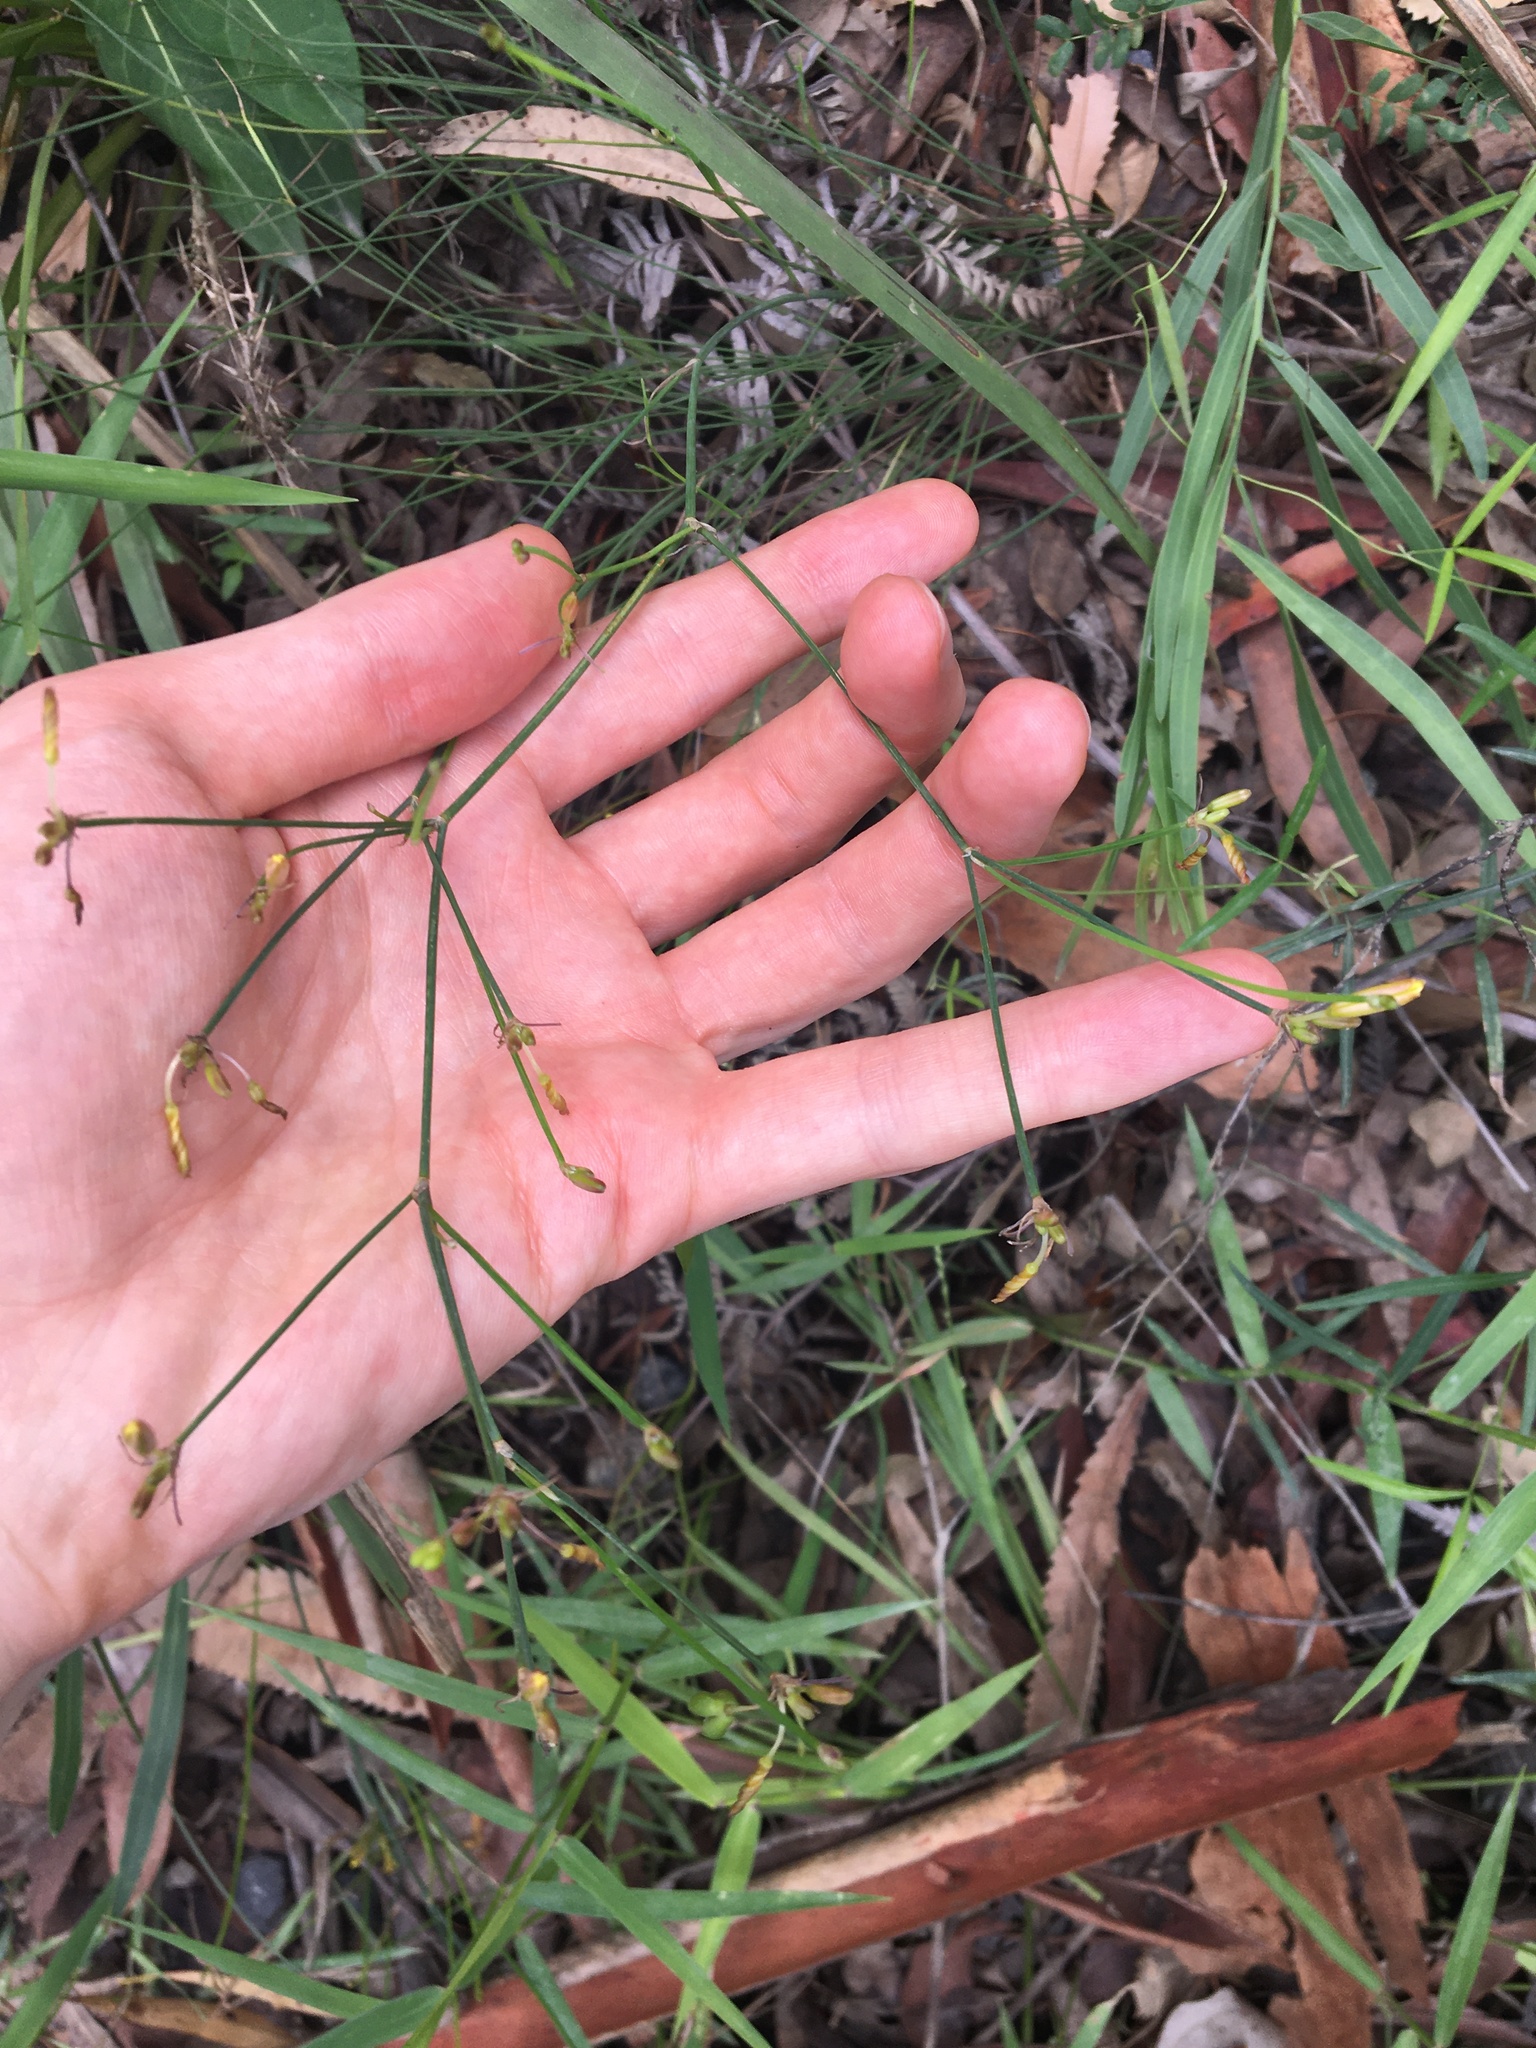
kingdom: Plantae
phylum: Tracheophyta
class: Liliopsida
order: Asparagales
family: Asphodelaceae
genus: Tricoryne
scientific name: Tricoryne elatior
